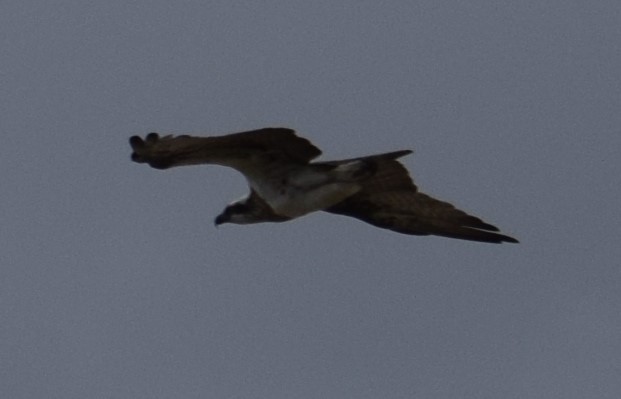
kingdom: Animalia
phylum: Chordata
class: Aves
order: Accipitriformes
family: Pandionidae
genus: Pandion
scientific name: Pandion cristatus
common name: Eastern osprey
